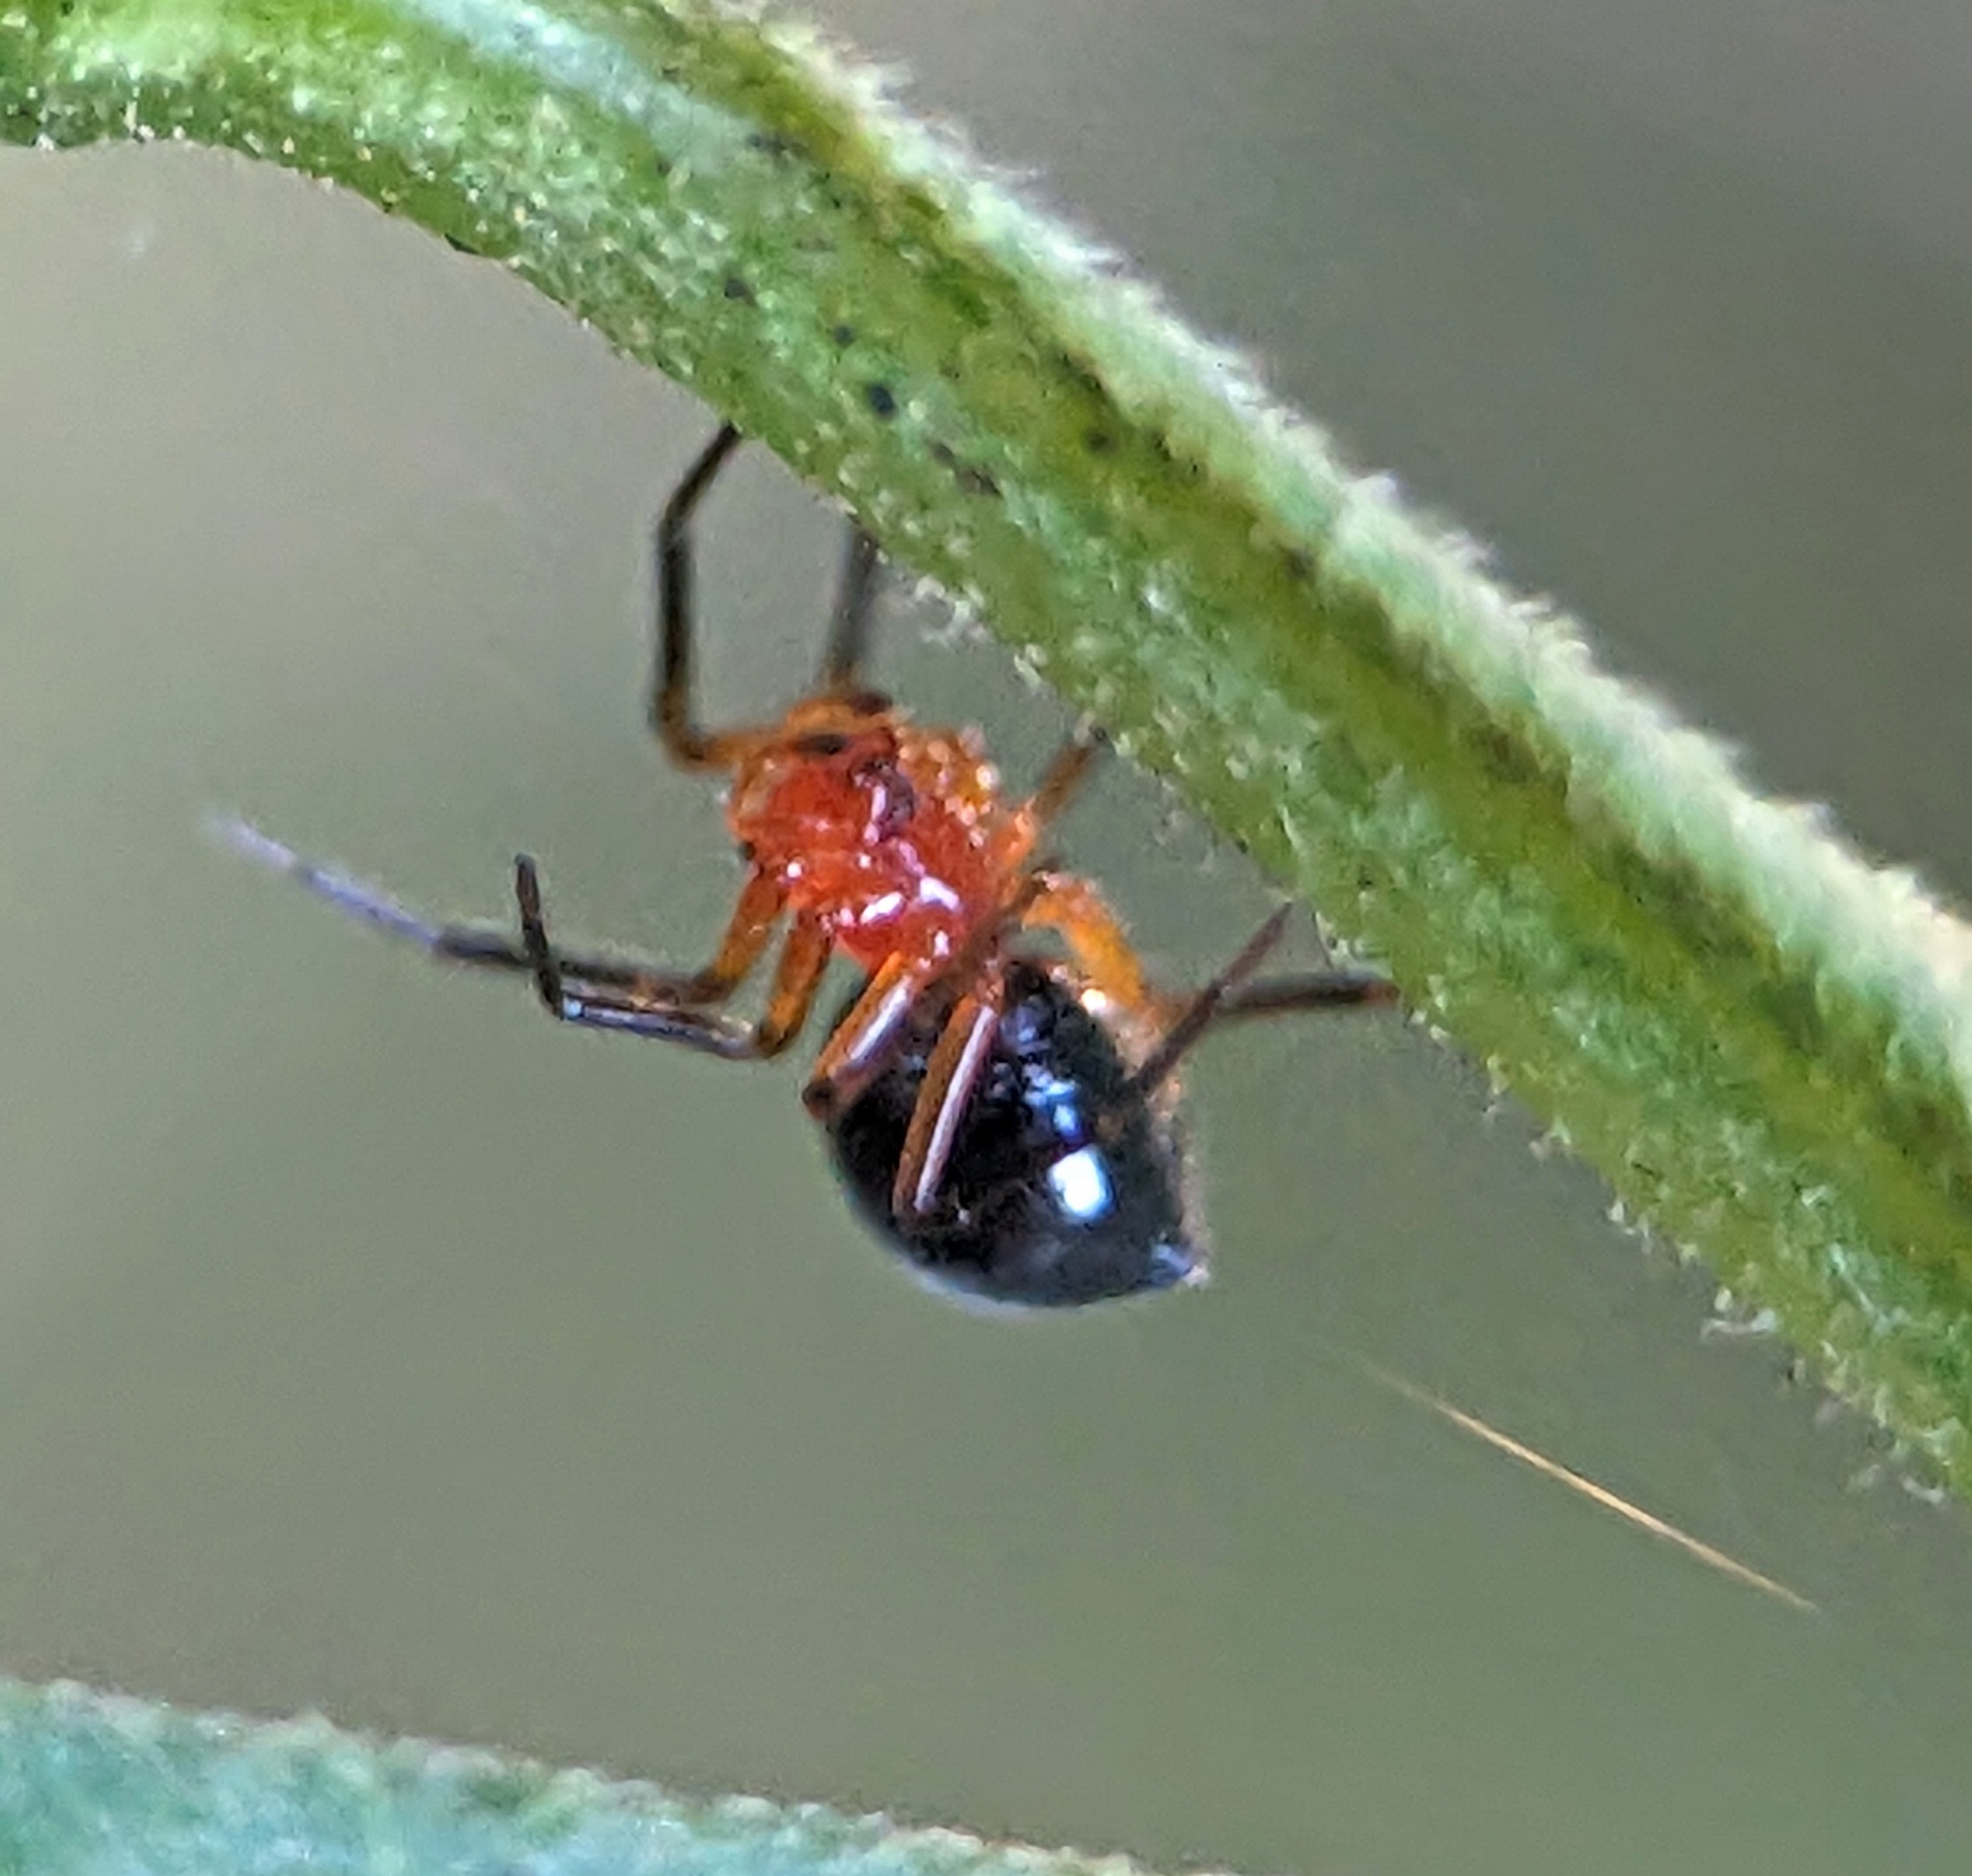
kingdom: Animalia
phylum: Arthropoda
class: Arachnida
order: Araneae
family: Linyphiidae
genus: Hypselistes
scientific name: Hypselistes florens
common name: Peatland sheetweb weaver
